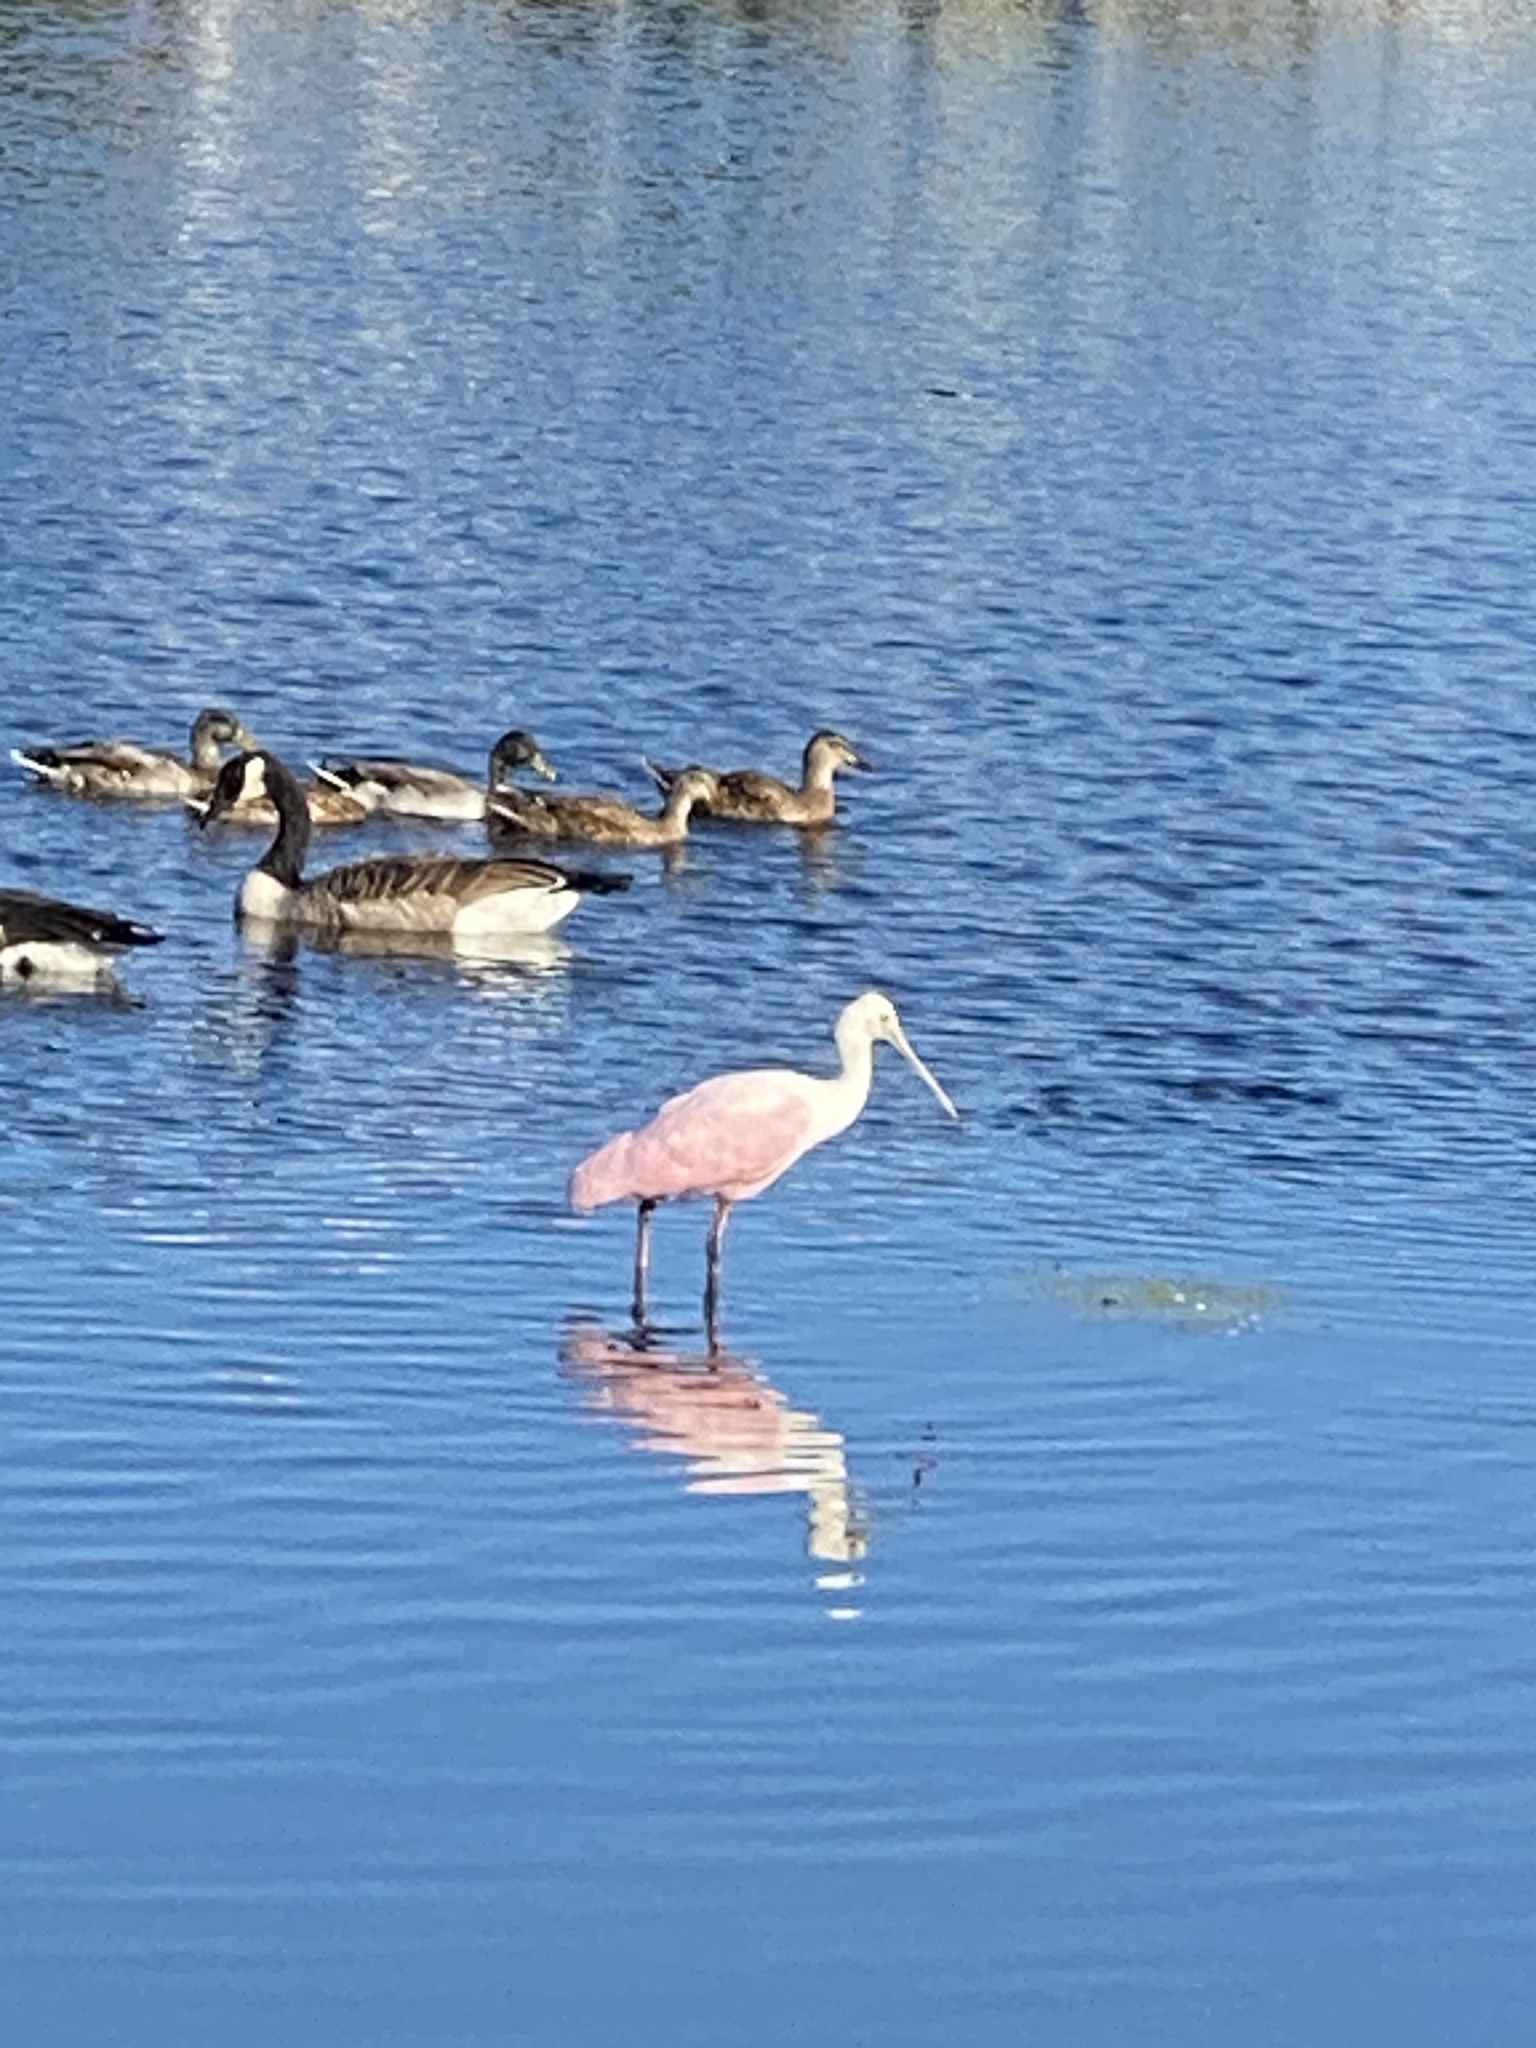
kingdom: Animalia
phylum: Chordata
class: Aves
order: Pelecaniformes
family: Threskiornithidae
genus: Platalea
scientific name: Platalea ajaja
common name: Roseate spoonbill
